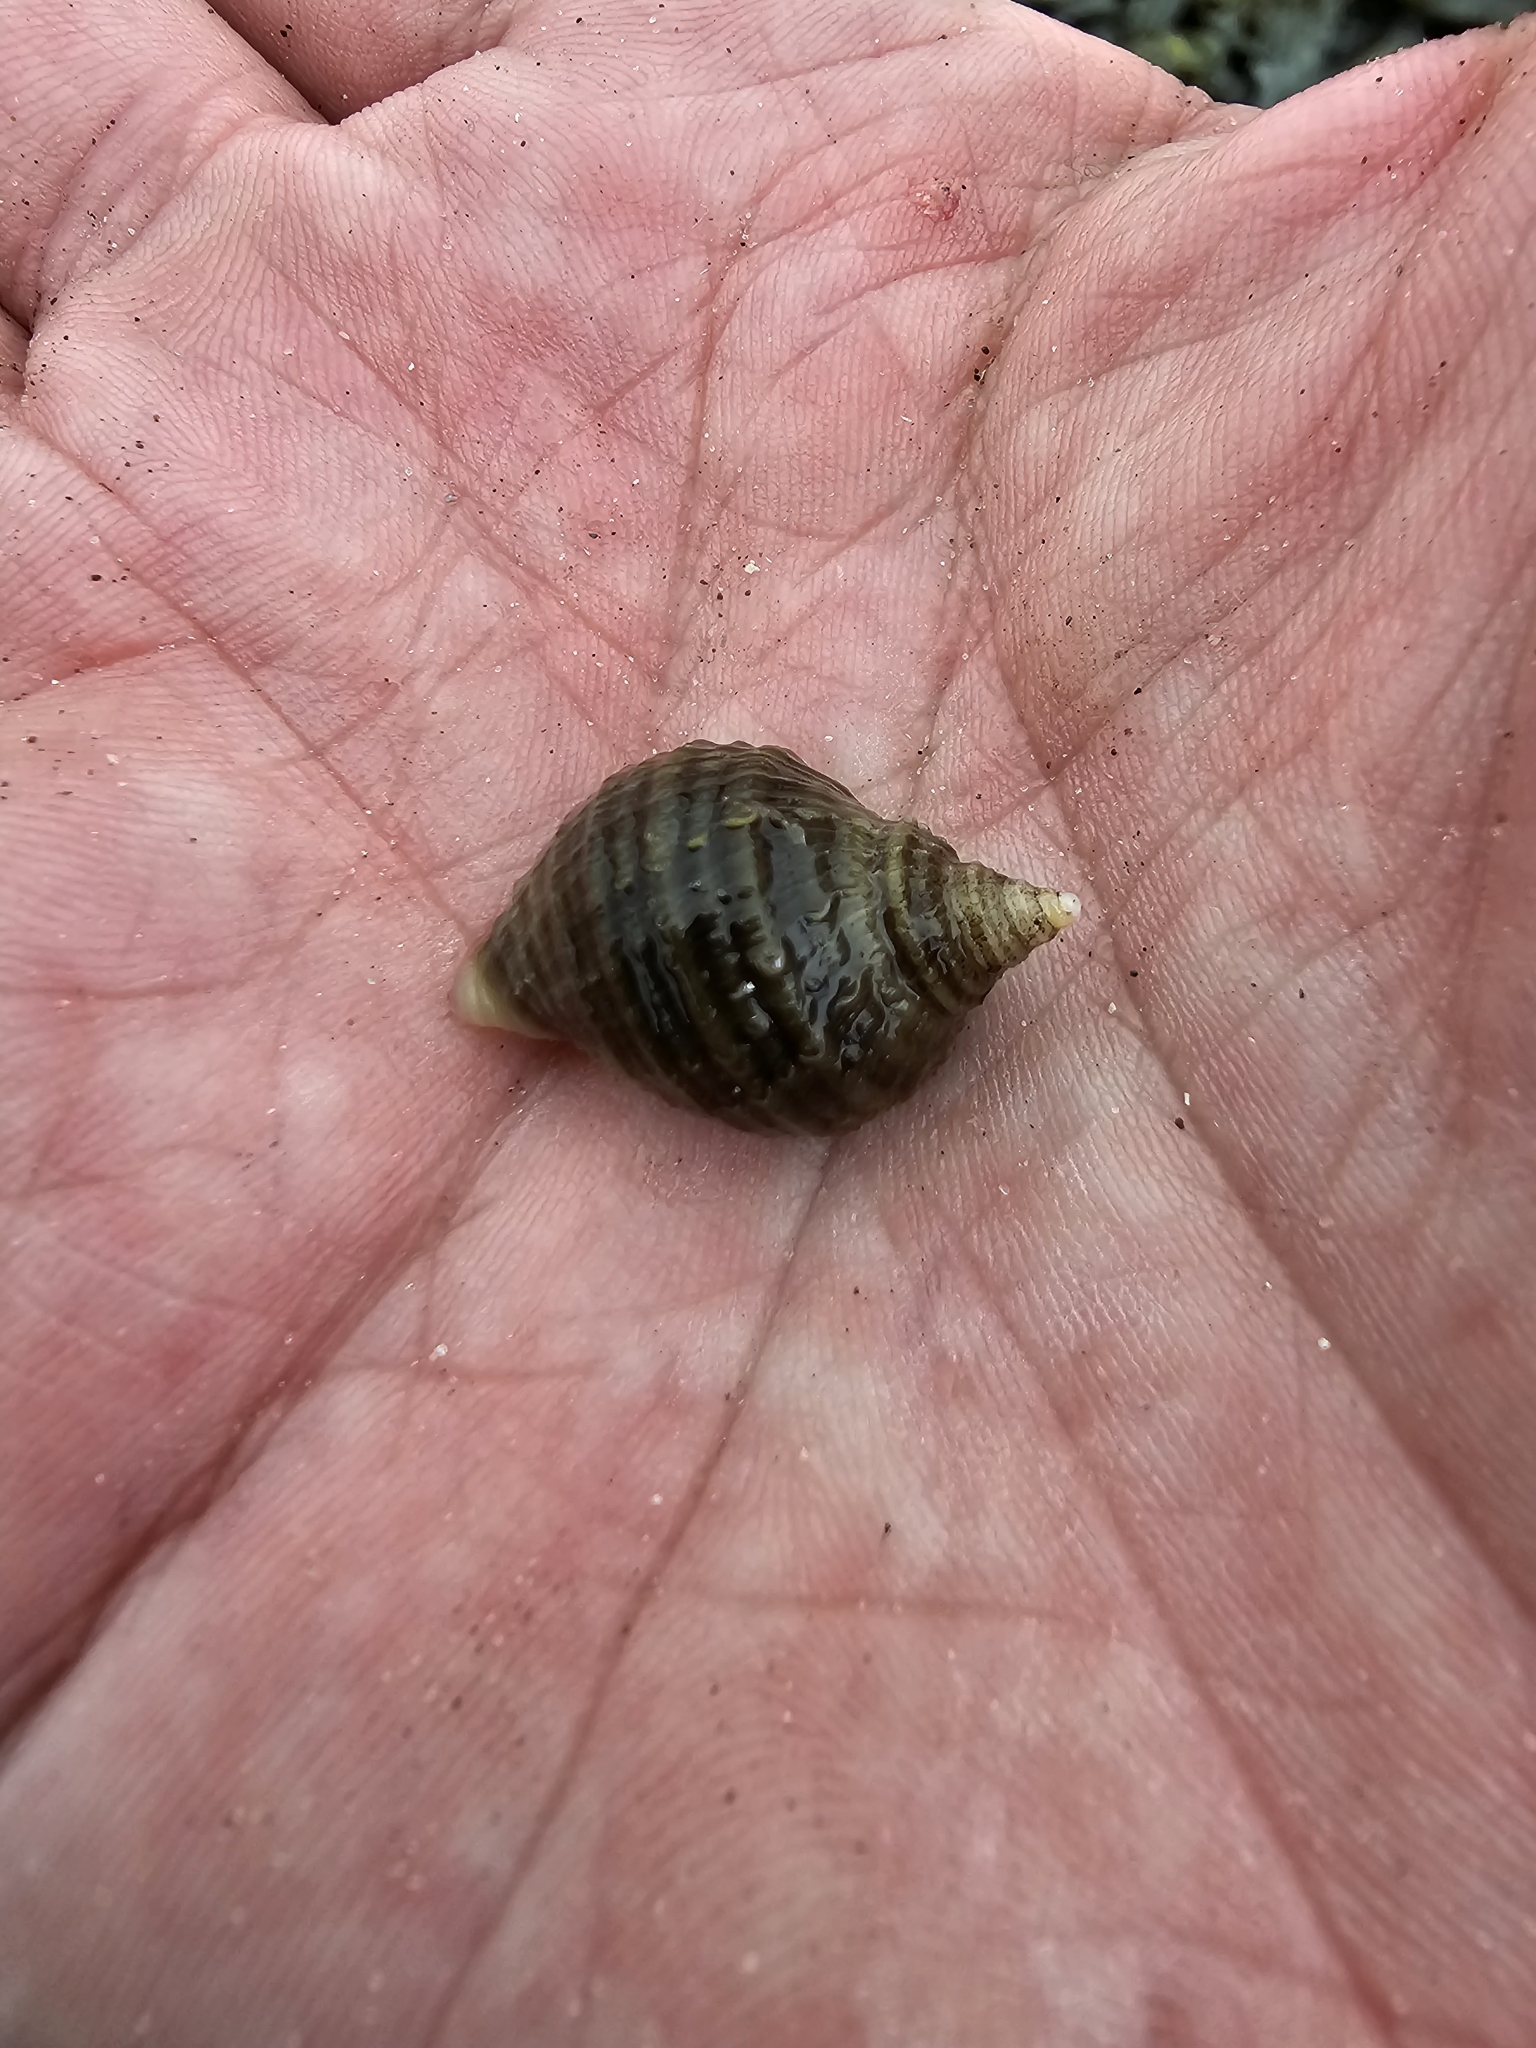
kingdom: Animalia
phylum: Mollusca
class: Gastropoda
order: Neogastropoda
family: Muricidae
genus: Nucella
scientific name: Nucella lapillus
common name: Dog whelk
